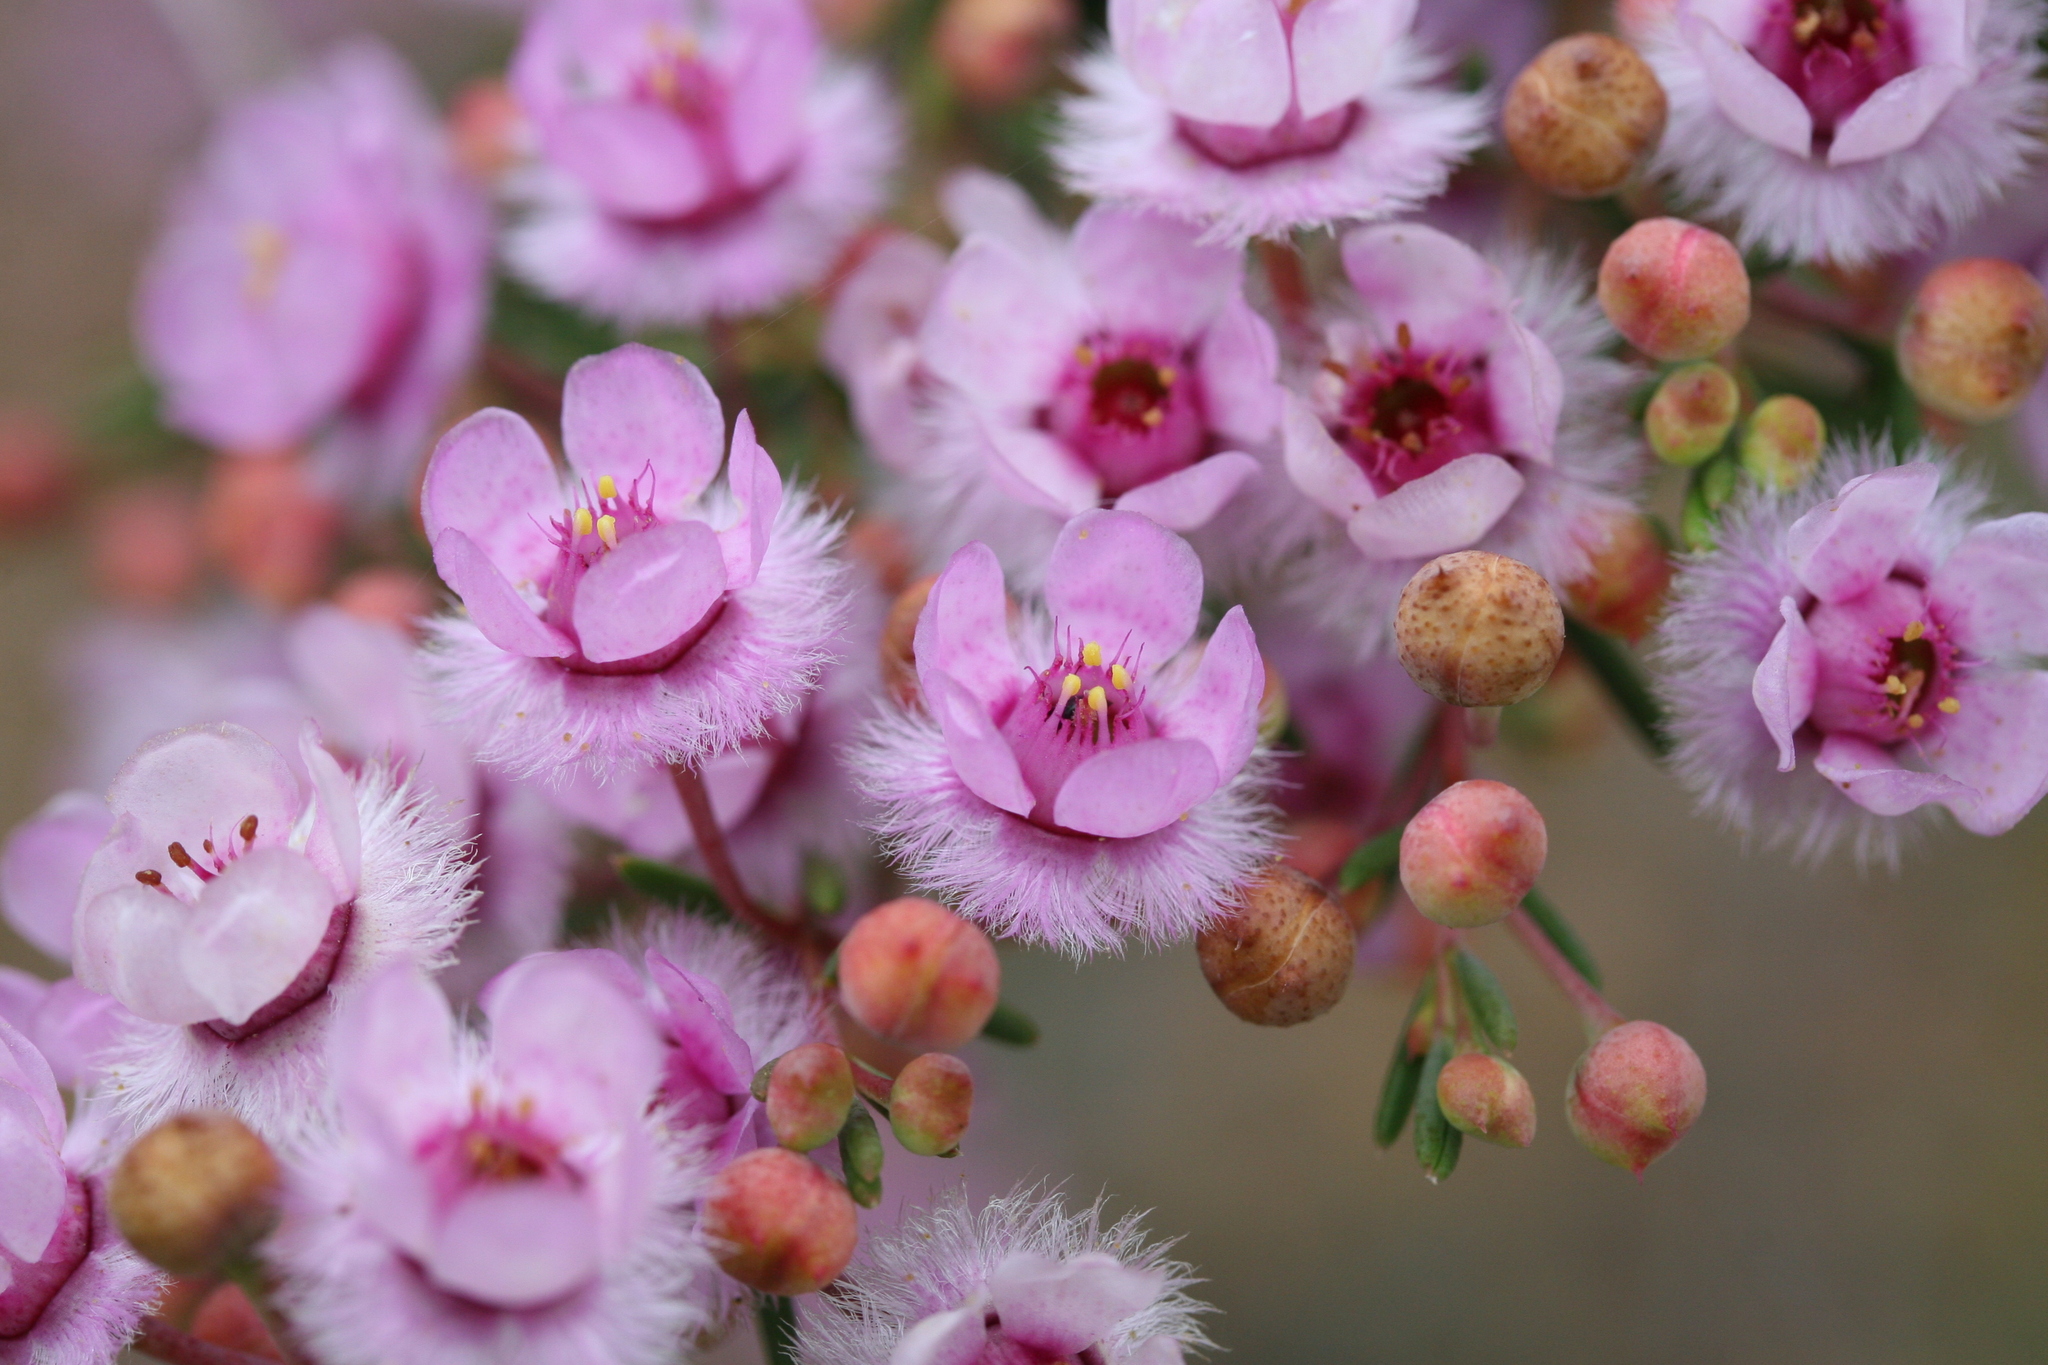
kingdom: Plantae
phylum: Tracheophyta
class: Magnoliopsida
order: Myrtales
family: Myrtaceae
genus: Verticordia
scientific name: Verticordia picta
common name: Painted feather-flower
